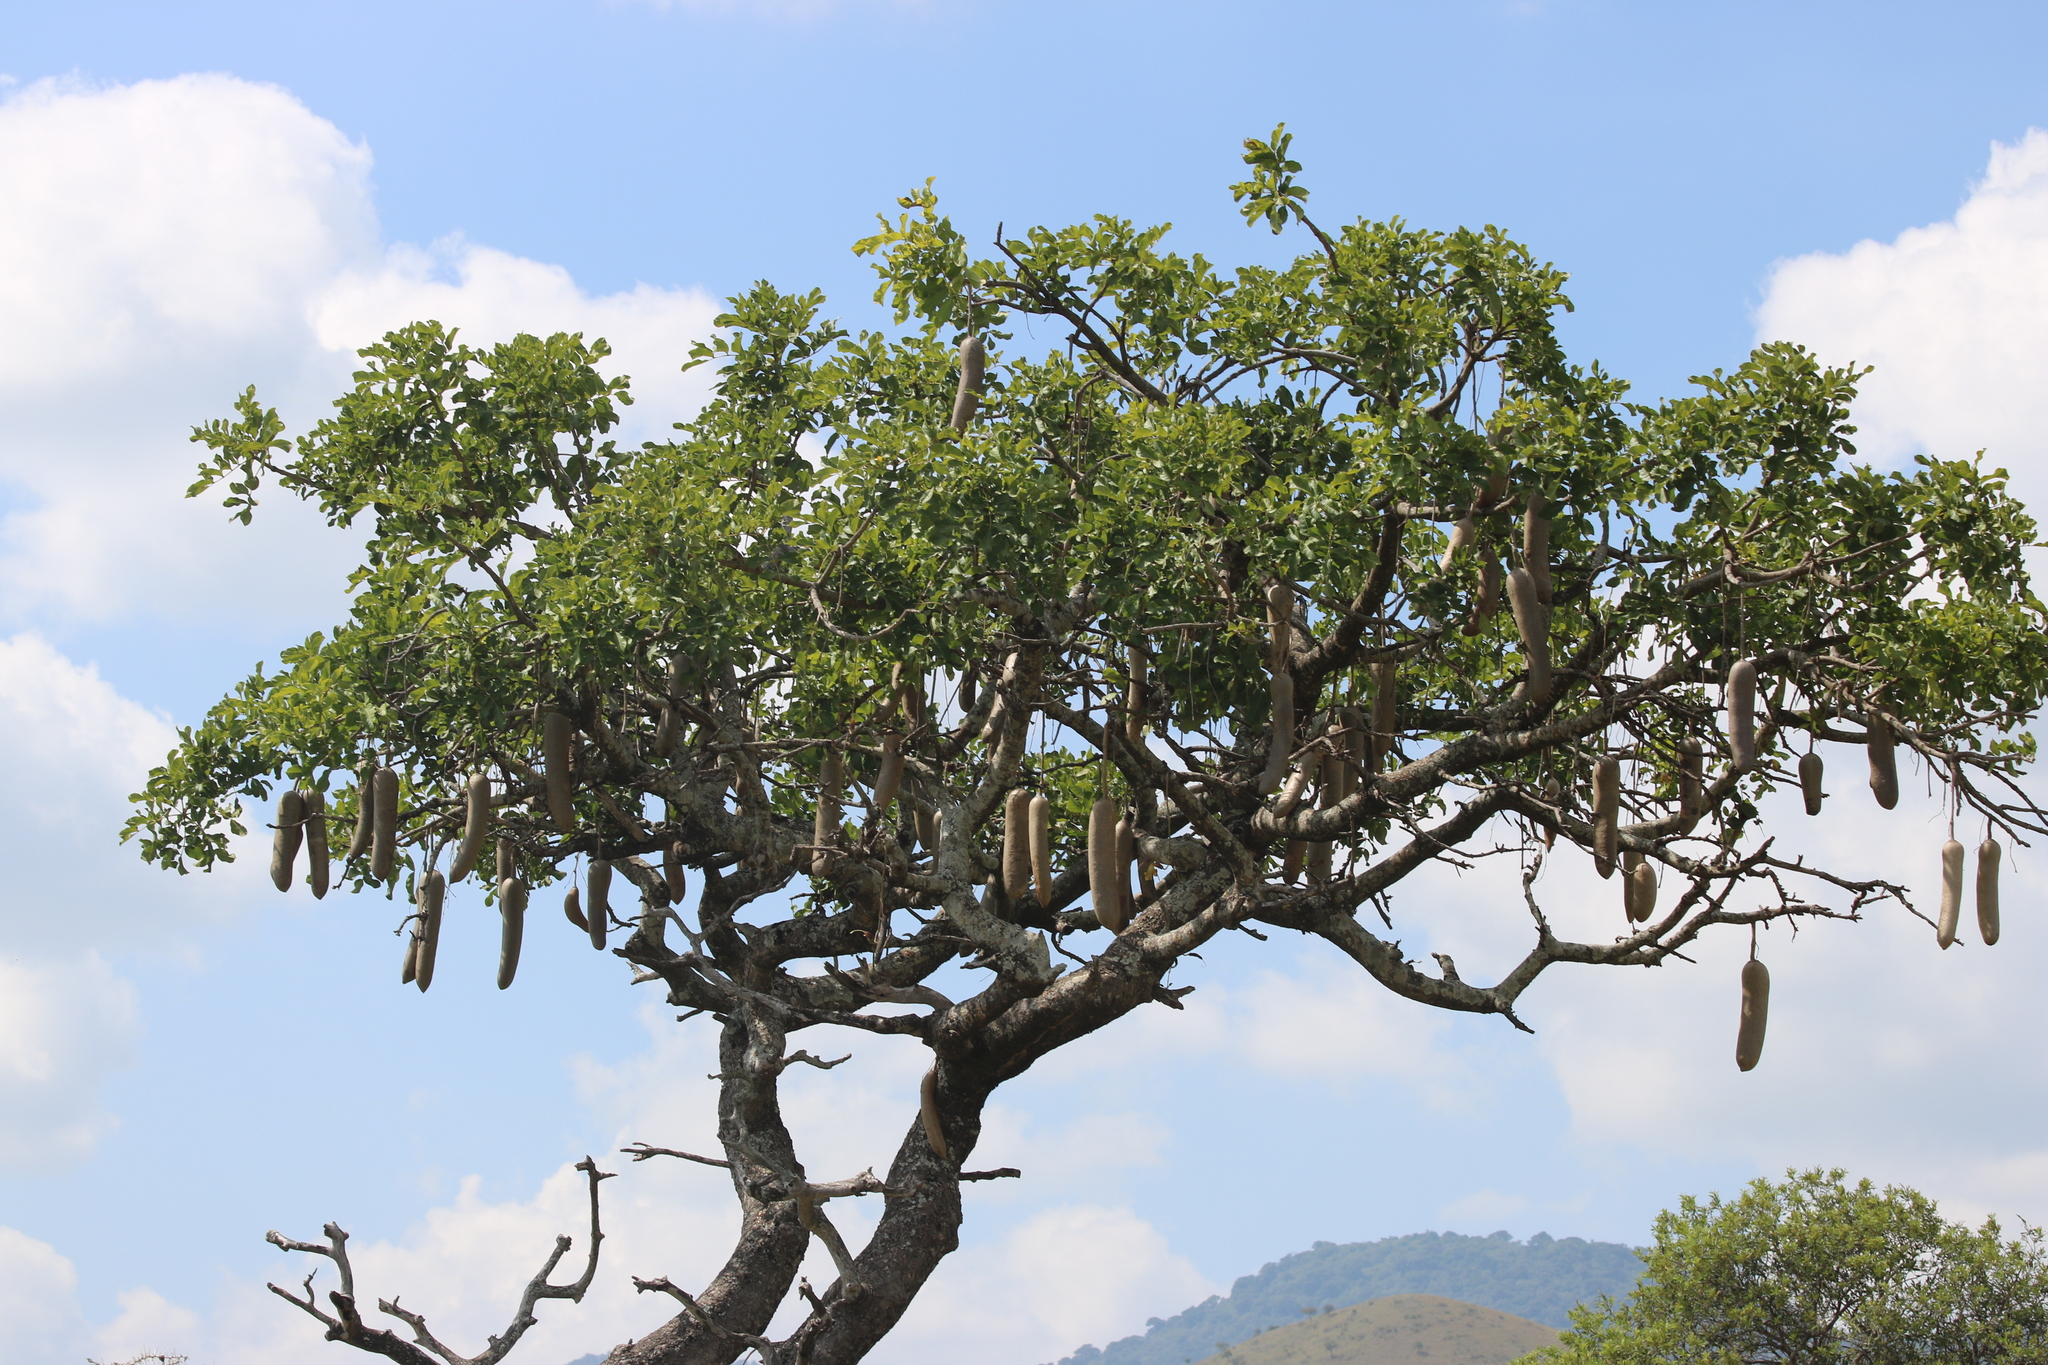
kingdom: Plantae
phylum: Tracheophyta
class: Magnoliopsida
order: Lamiales
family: Bignoniaceae
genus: Kigelia
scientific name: Kigelia africana
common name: Sausage tree
